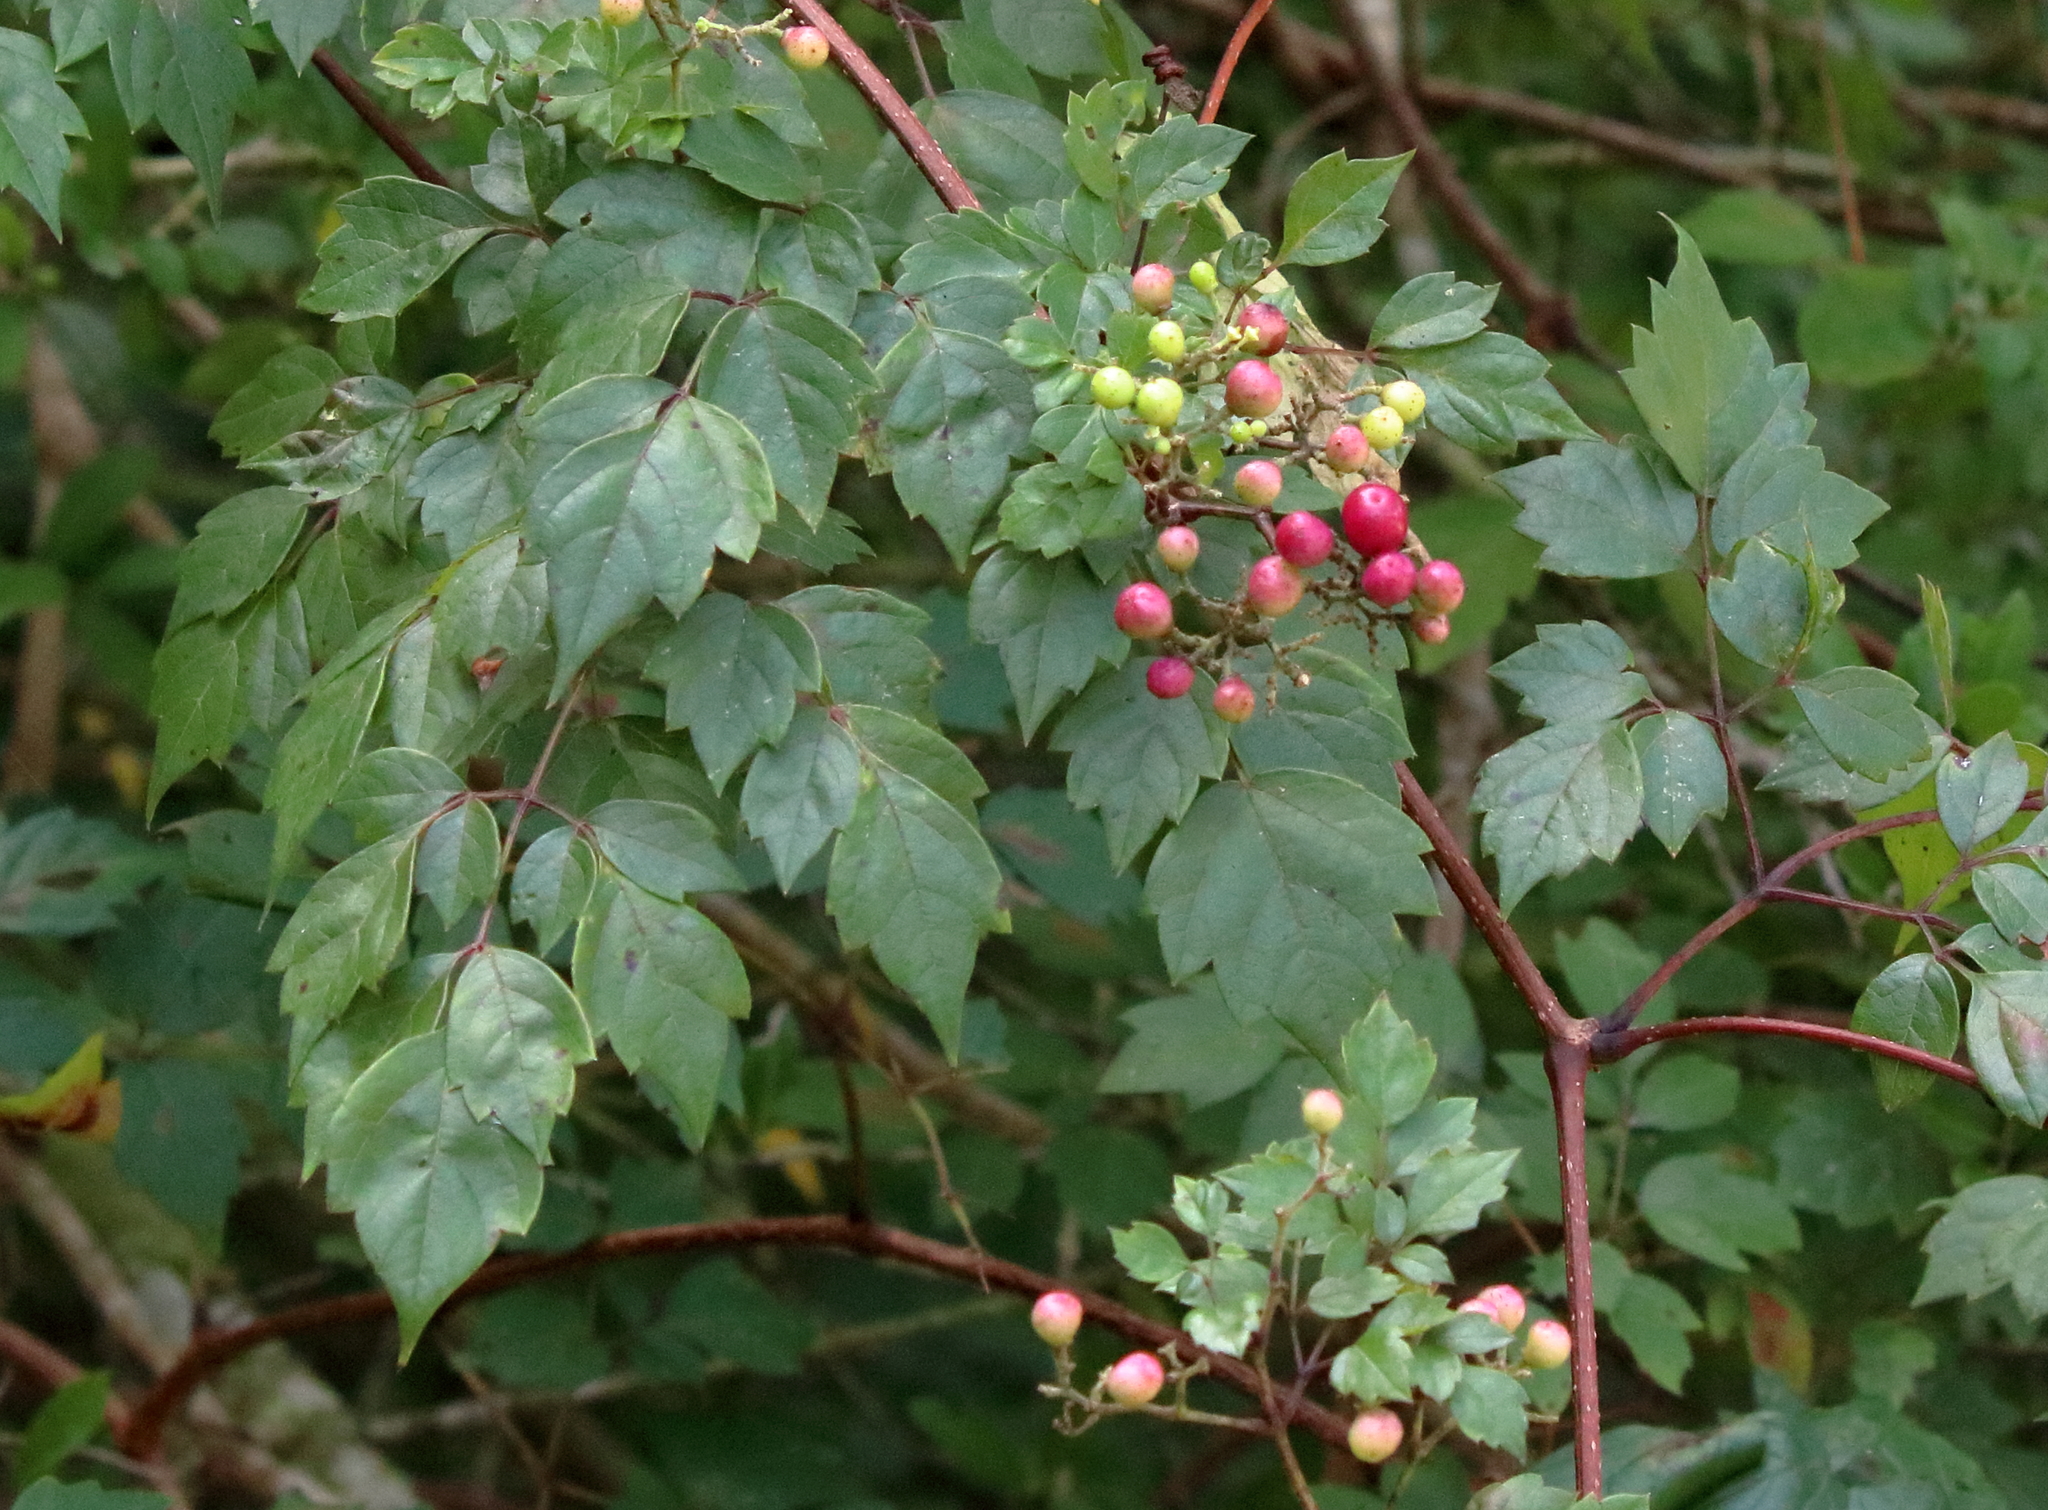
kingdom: Plantae
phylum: Tracheophyta
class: Magnoliopsida
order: Vitales
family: Vitaceae
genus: Nekemias
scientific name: Nekemias arborea
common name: Peppervine
